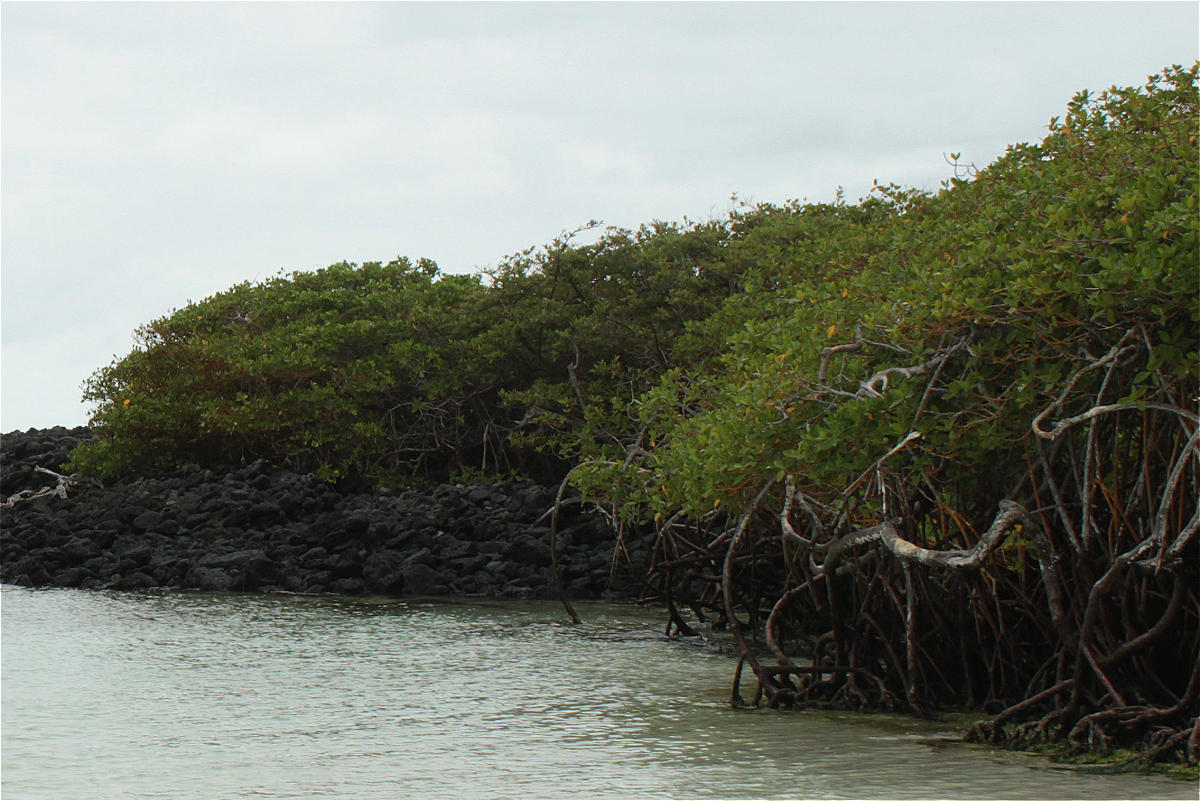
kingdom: Plantae
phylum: Tracheophyta
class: Magnoliopsida
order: Malpighiales
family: Rhizophoraceae
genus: Rhizophora
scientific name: Rhizophora mangle
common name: Red mangrove
